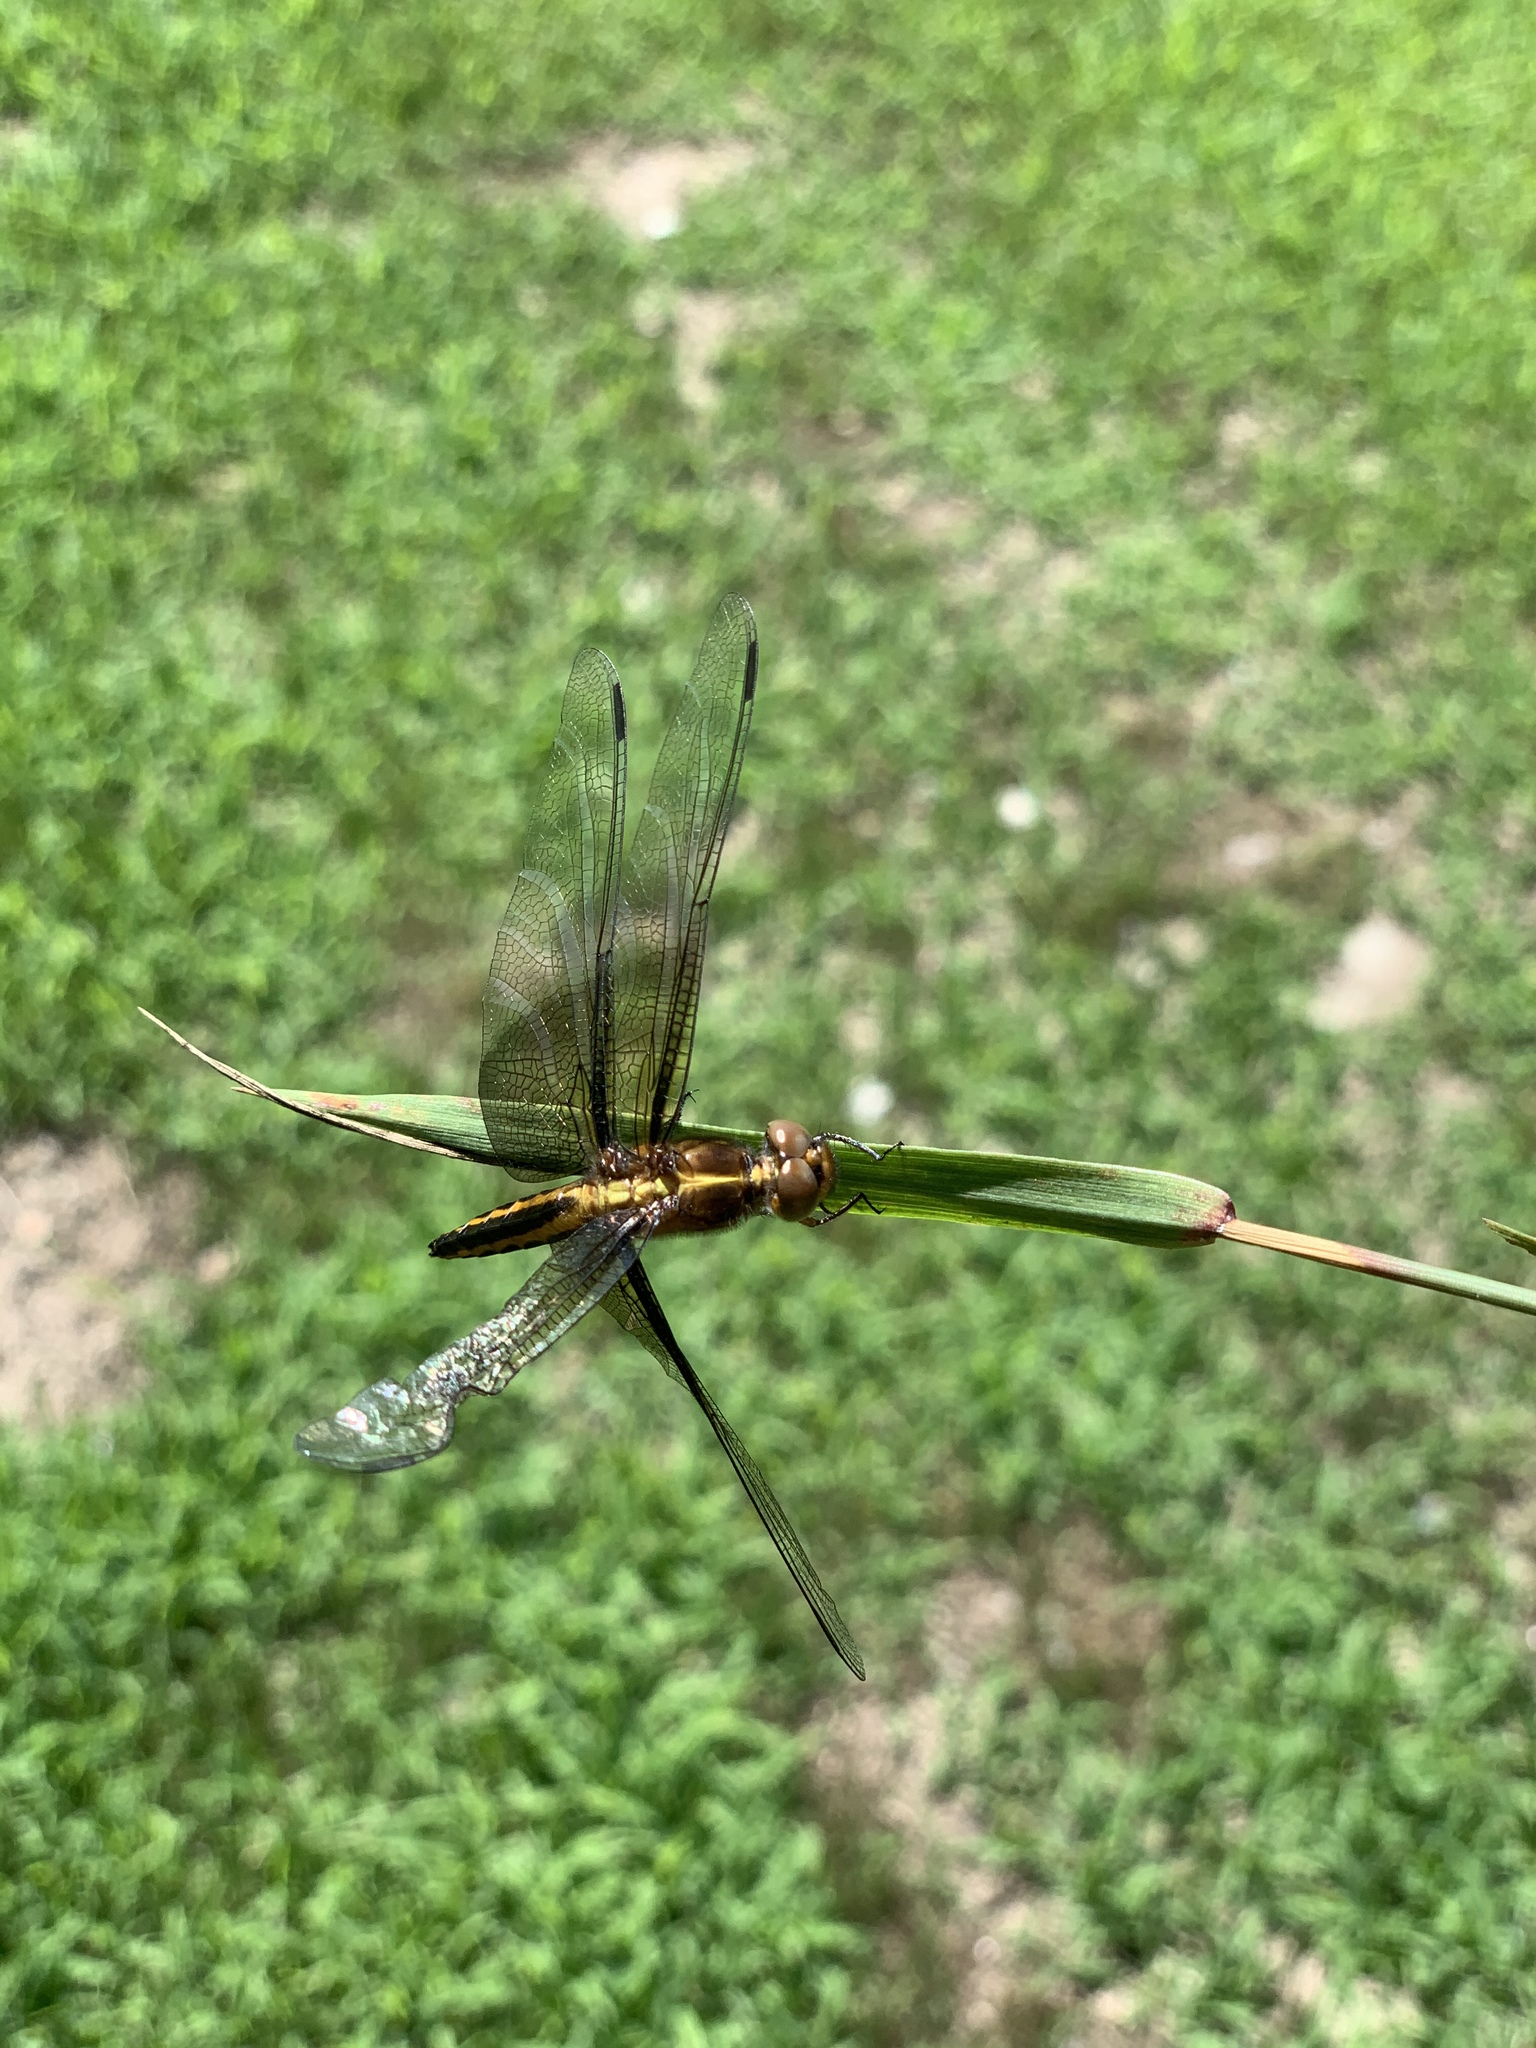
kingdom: Animalia
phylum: Arthropoda
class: Insecta
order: Odonata
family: Libellulidae
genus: Libellula
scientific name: Libellula luctuosa
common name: Widow skimmer
